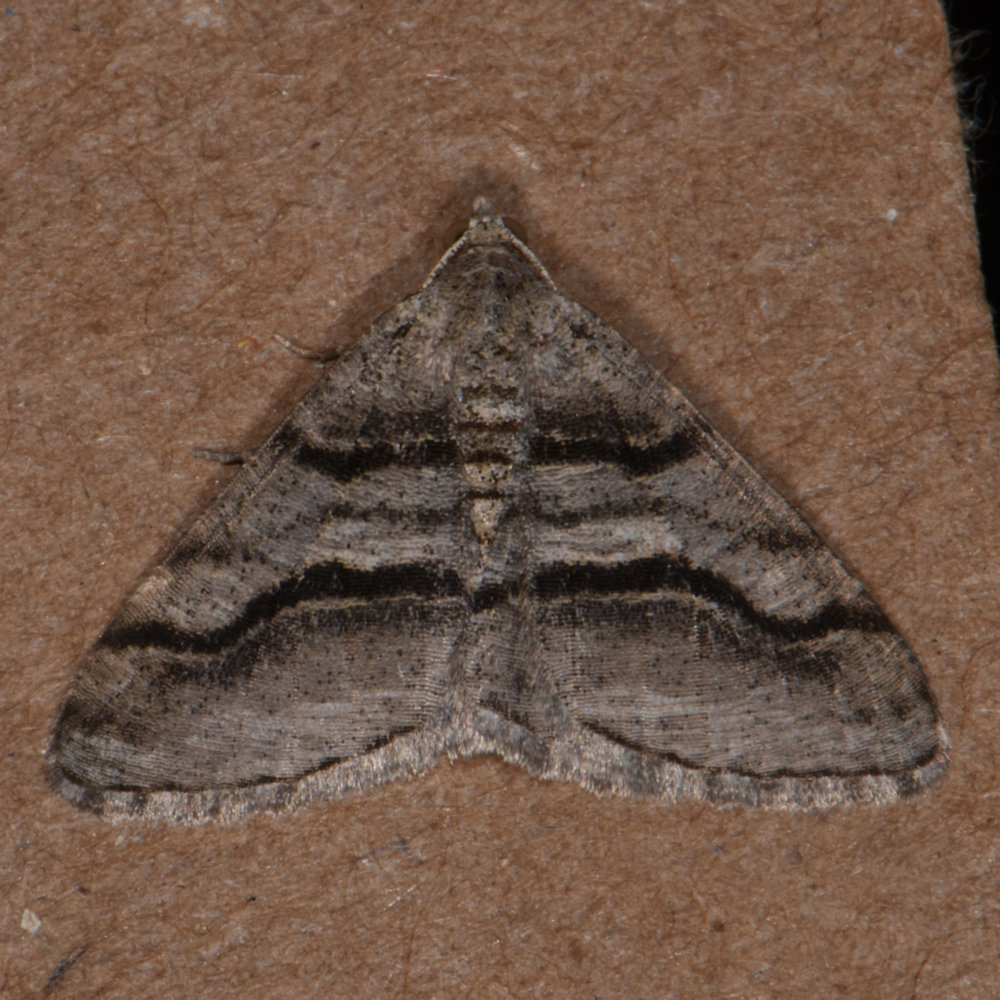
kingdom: Animalia
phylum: Arthropoda
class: Insecta
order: Lepidoptera
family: Geometridae
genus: Digrammia
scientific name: Digrammia continuata
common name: Curve-lined angle
